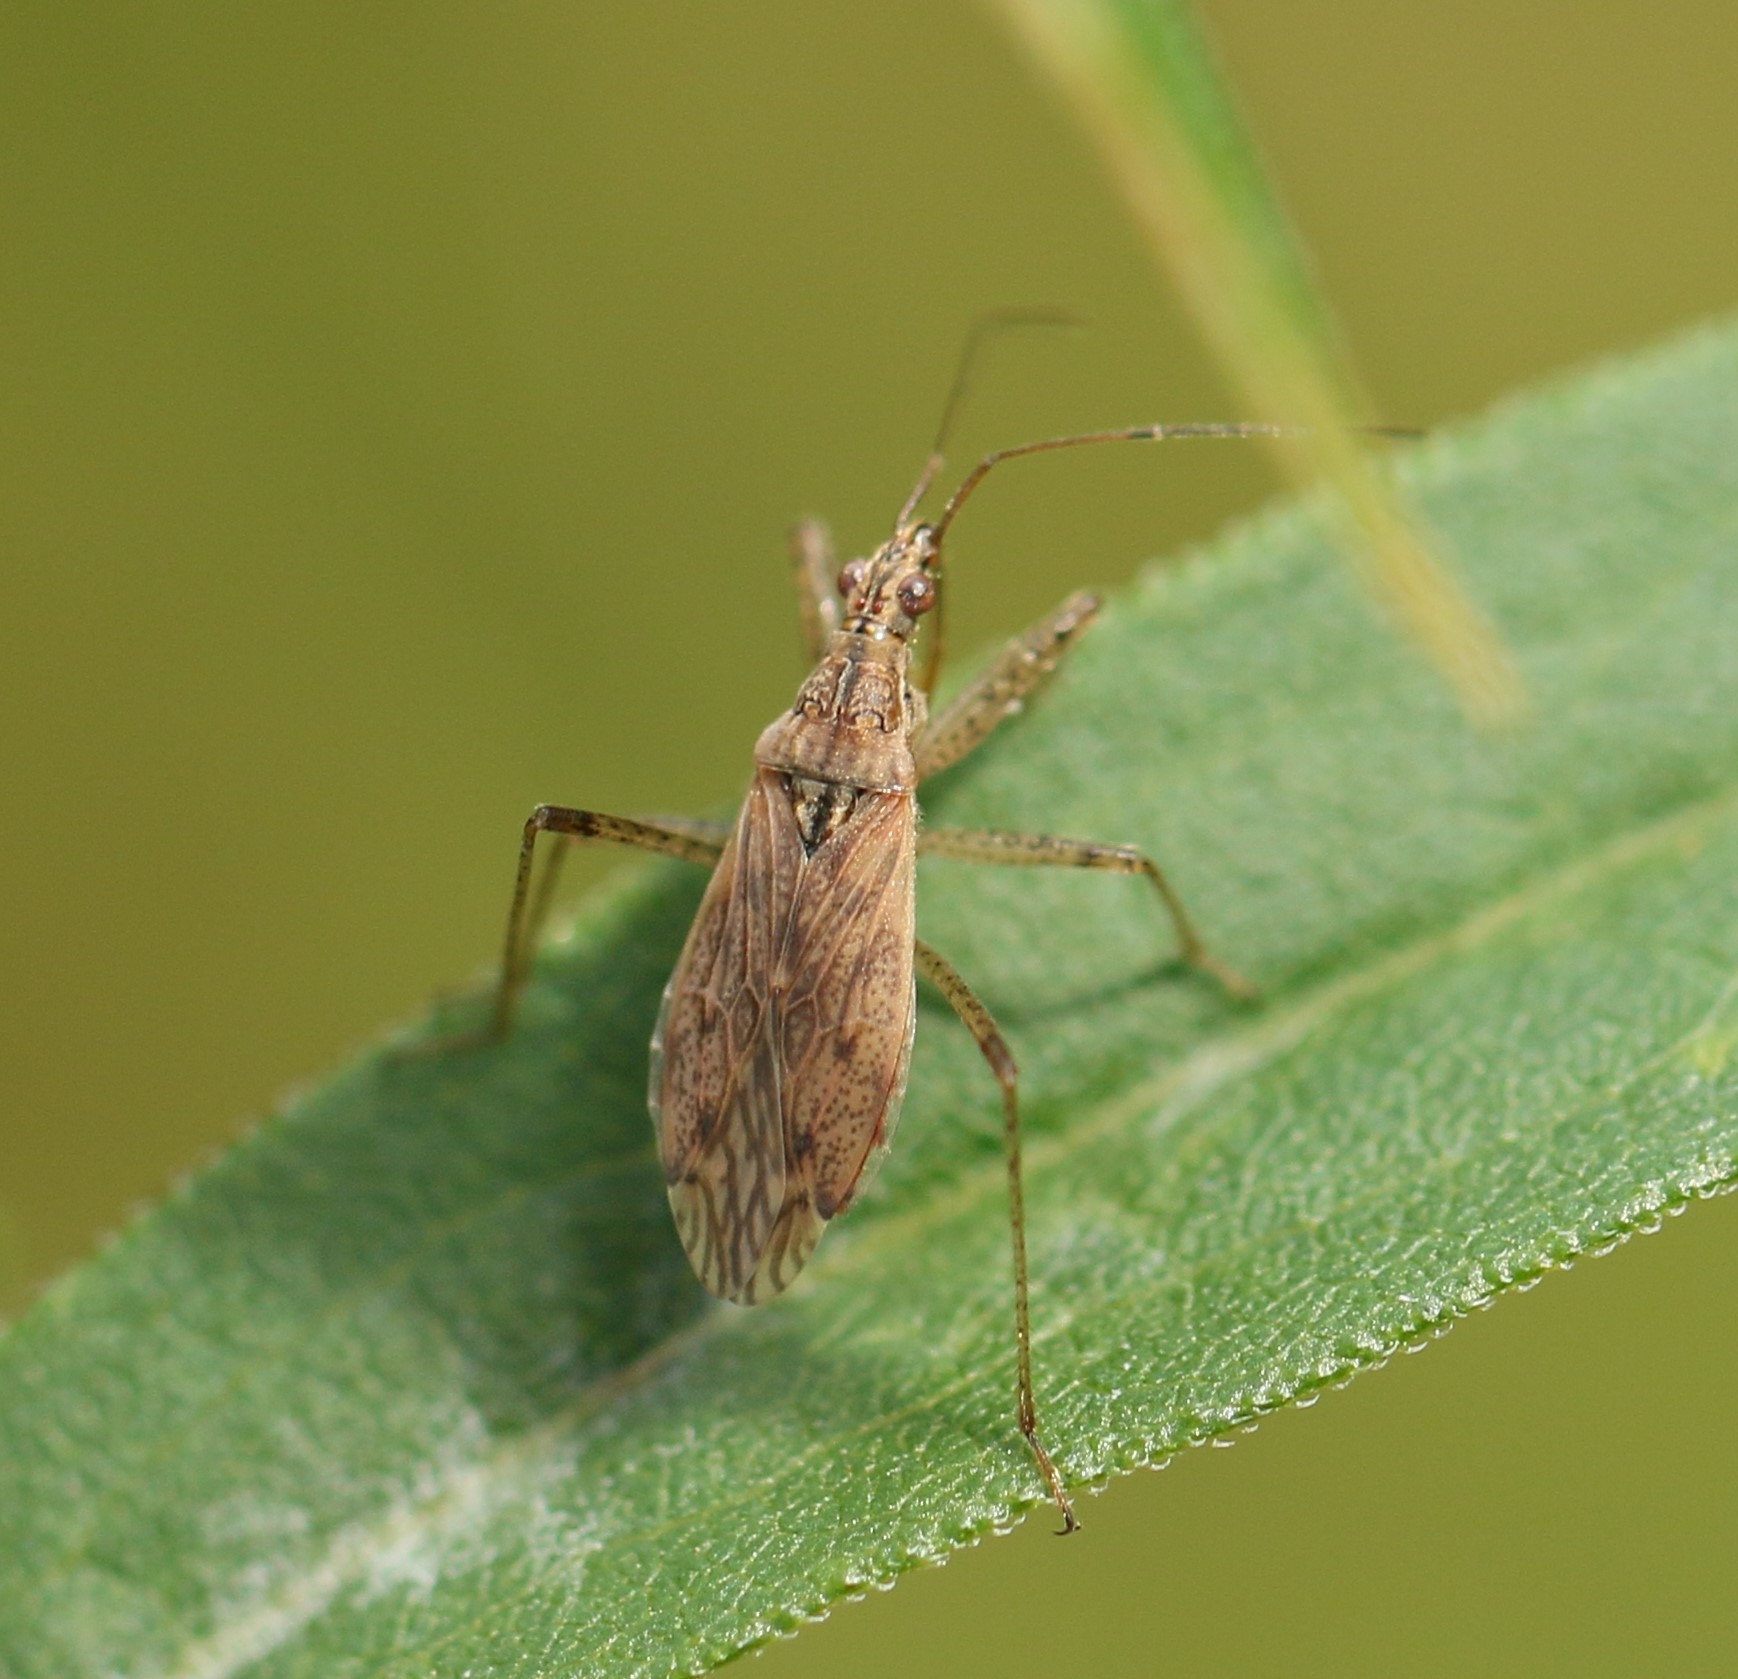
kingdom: Animalia
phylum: Arthropoda
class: Insecta
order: Hemiptera
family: Nabidae
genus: Nabis
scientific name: Nabis roseipennis
